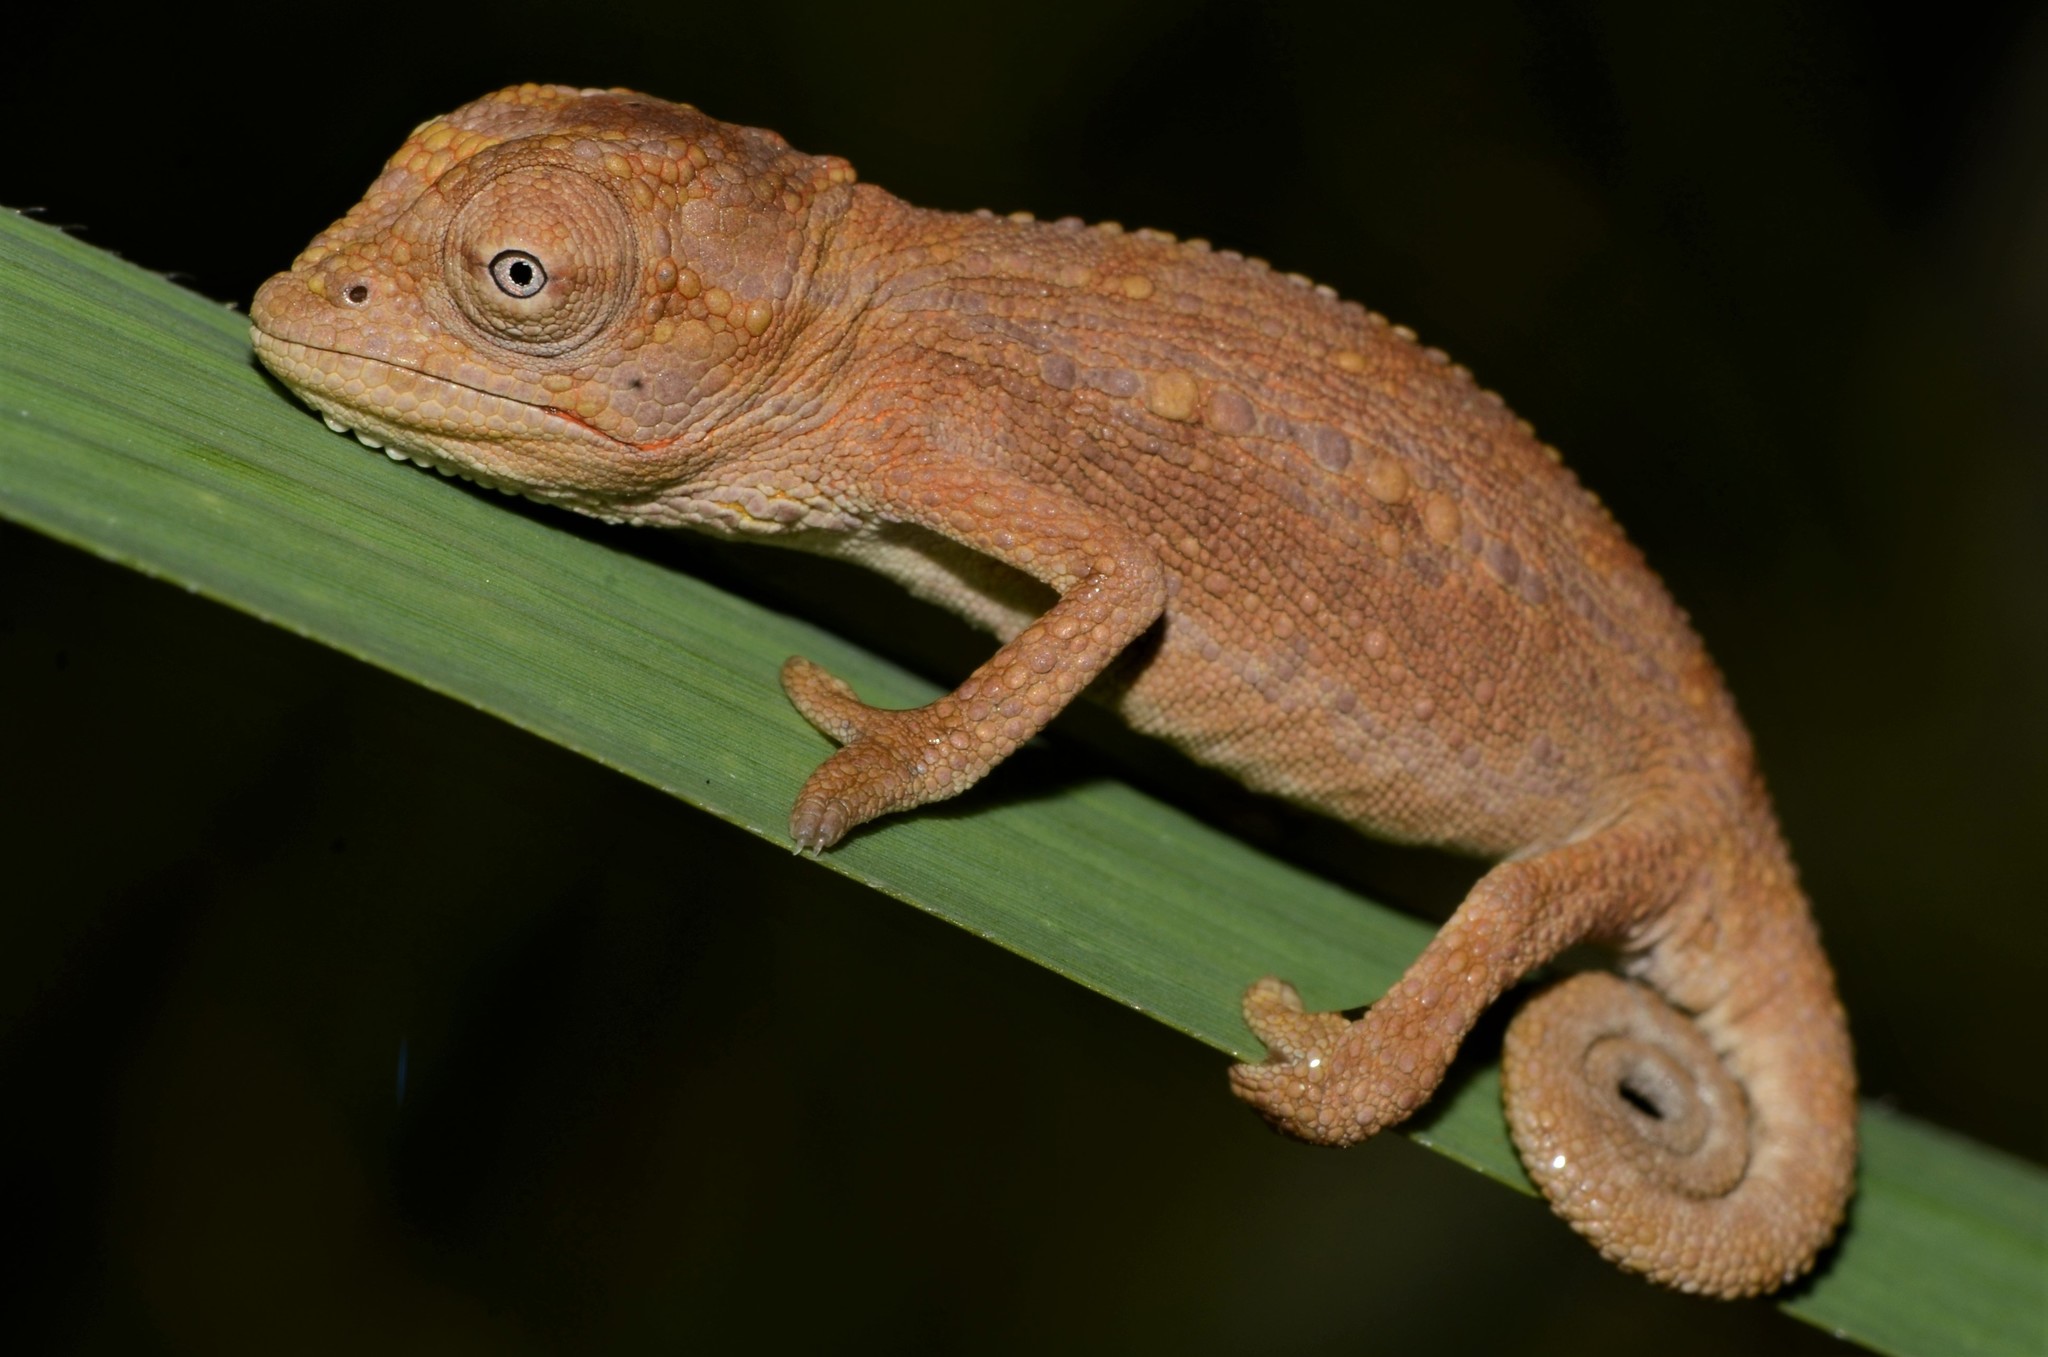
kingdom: Animalia
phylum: Chordata
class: Squamata
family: Chamaeleonidae
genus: Bradypodion
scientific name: Bradypodion pumilum
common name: Cape dwarf chameleon
